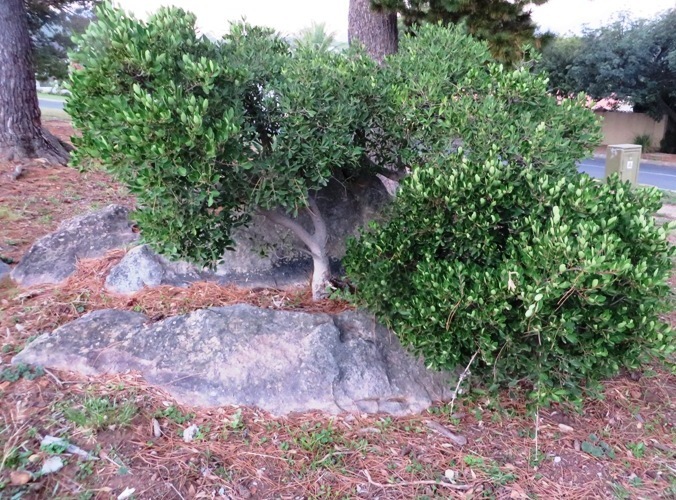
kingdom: Plantae
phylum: Tracheophyta
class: Magnoliopsida
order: Celastrales
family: Celastraceae
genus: Gymnosporia
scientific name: Gymnosporia laurina
